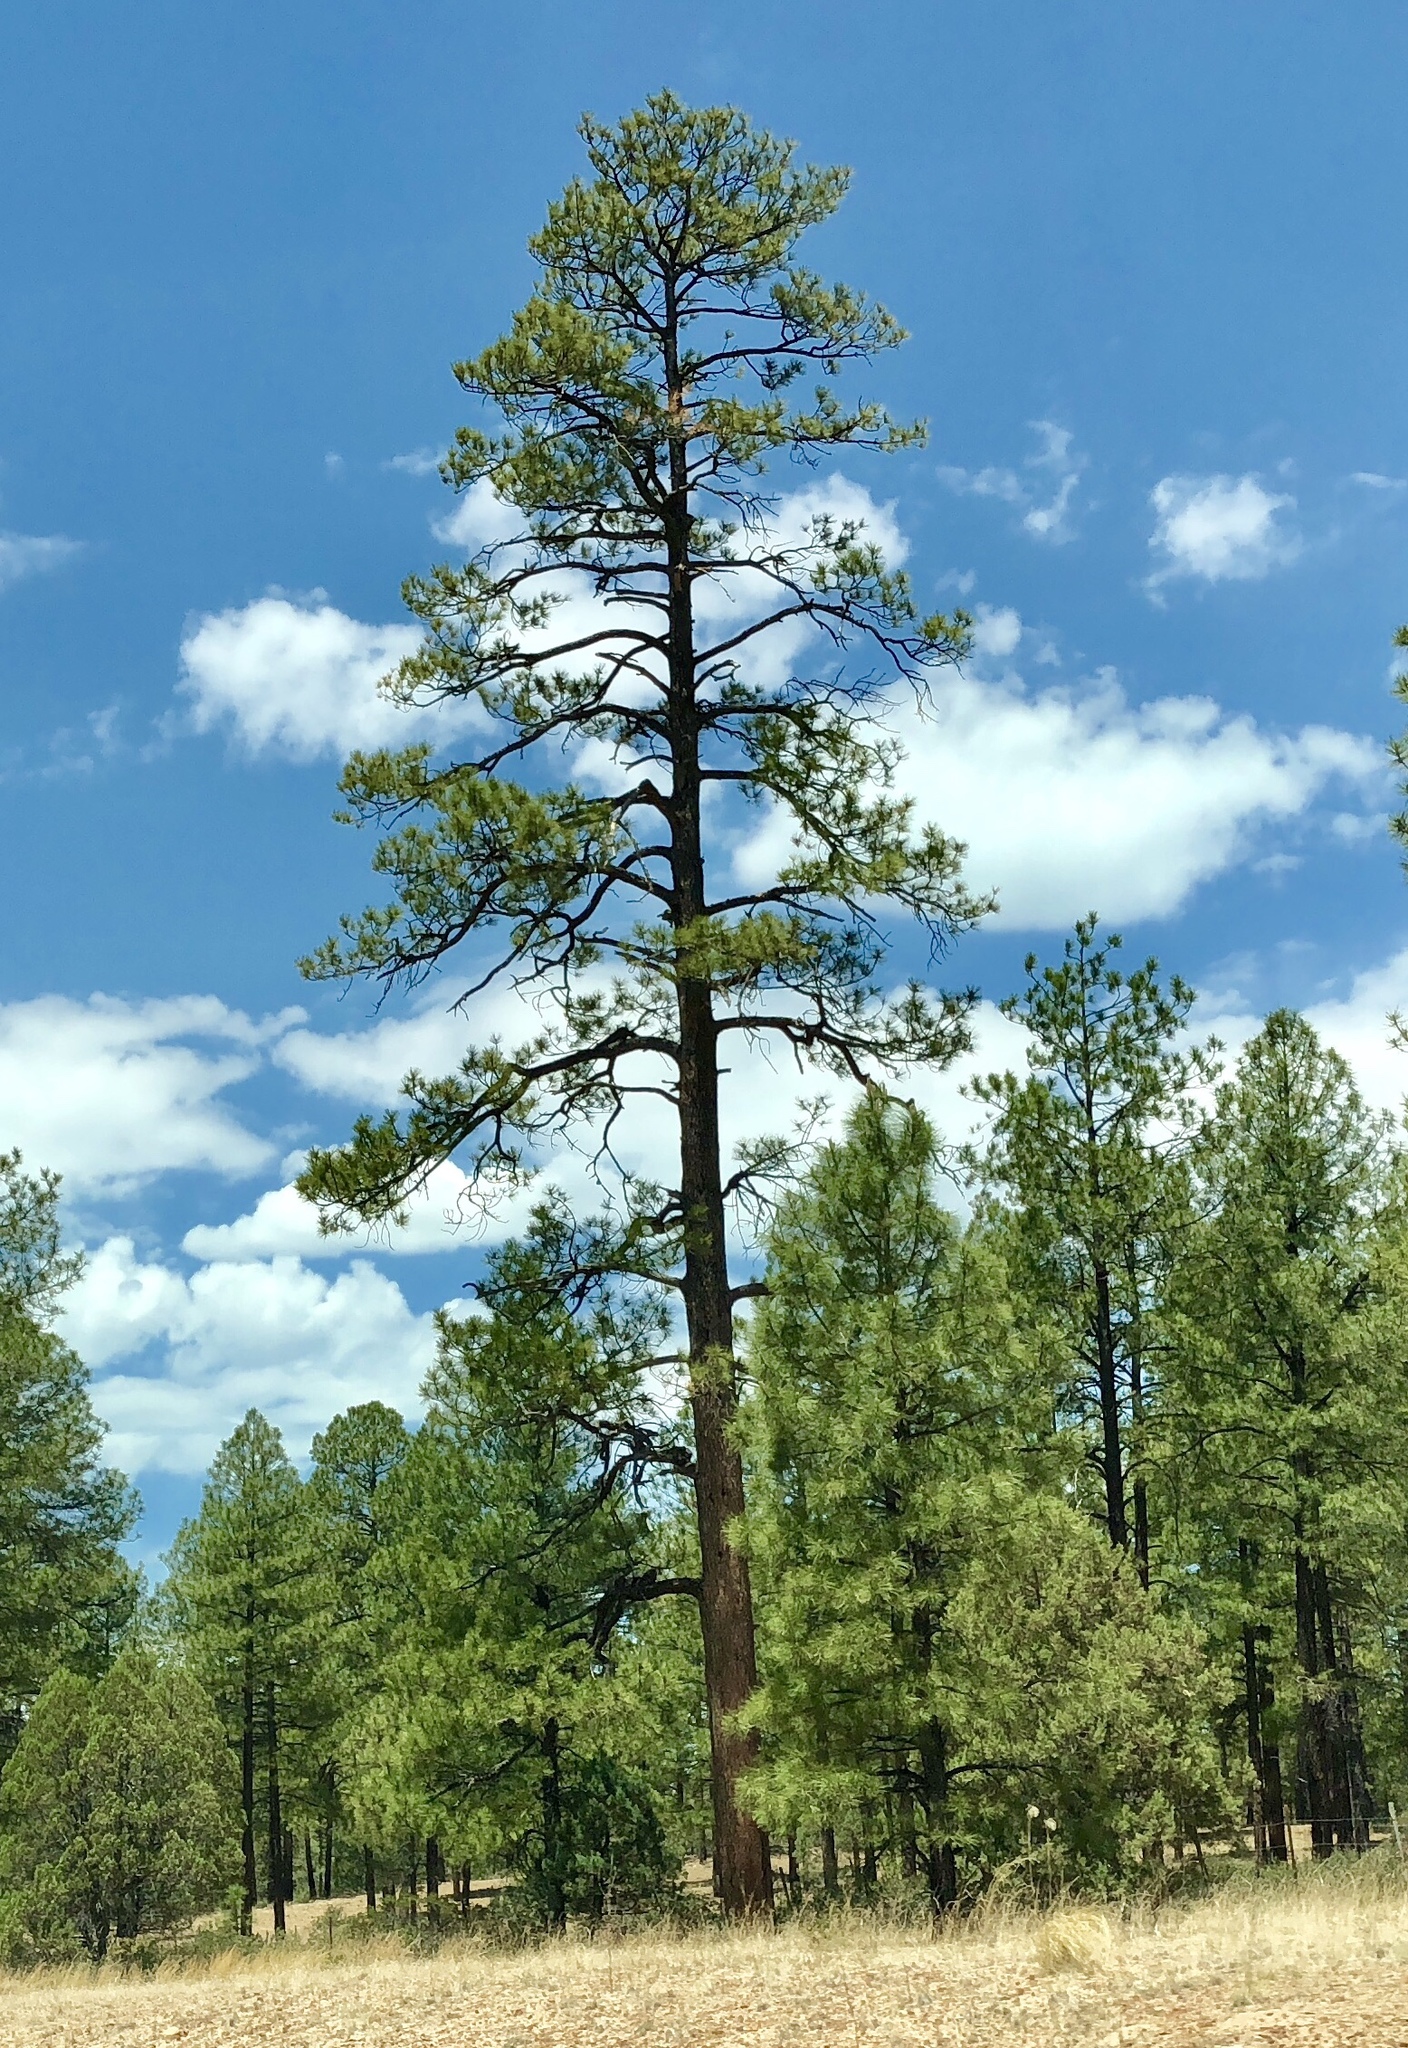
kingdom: Plantae
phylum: Tracheophyta
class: Pinopsida
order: Pinales
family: Pinaceae
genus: Pinus
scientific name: Pinus ponderosa
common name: Western yellow-pine
